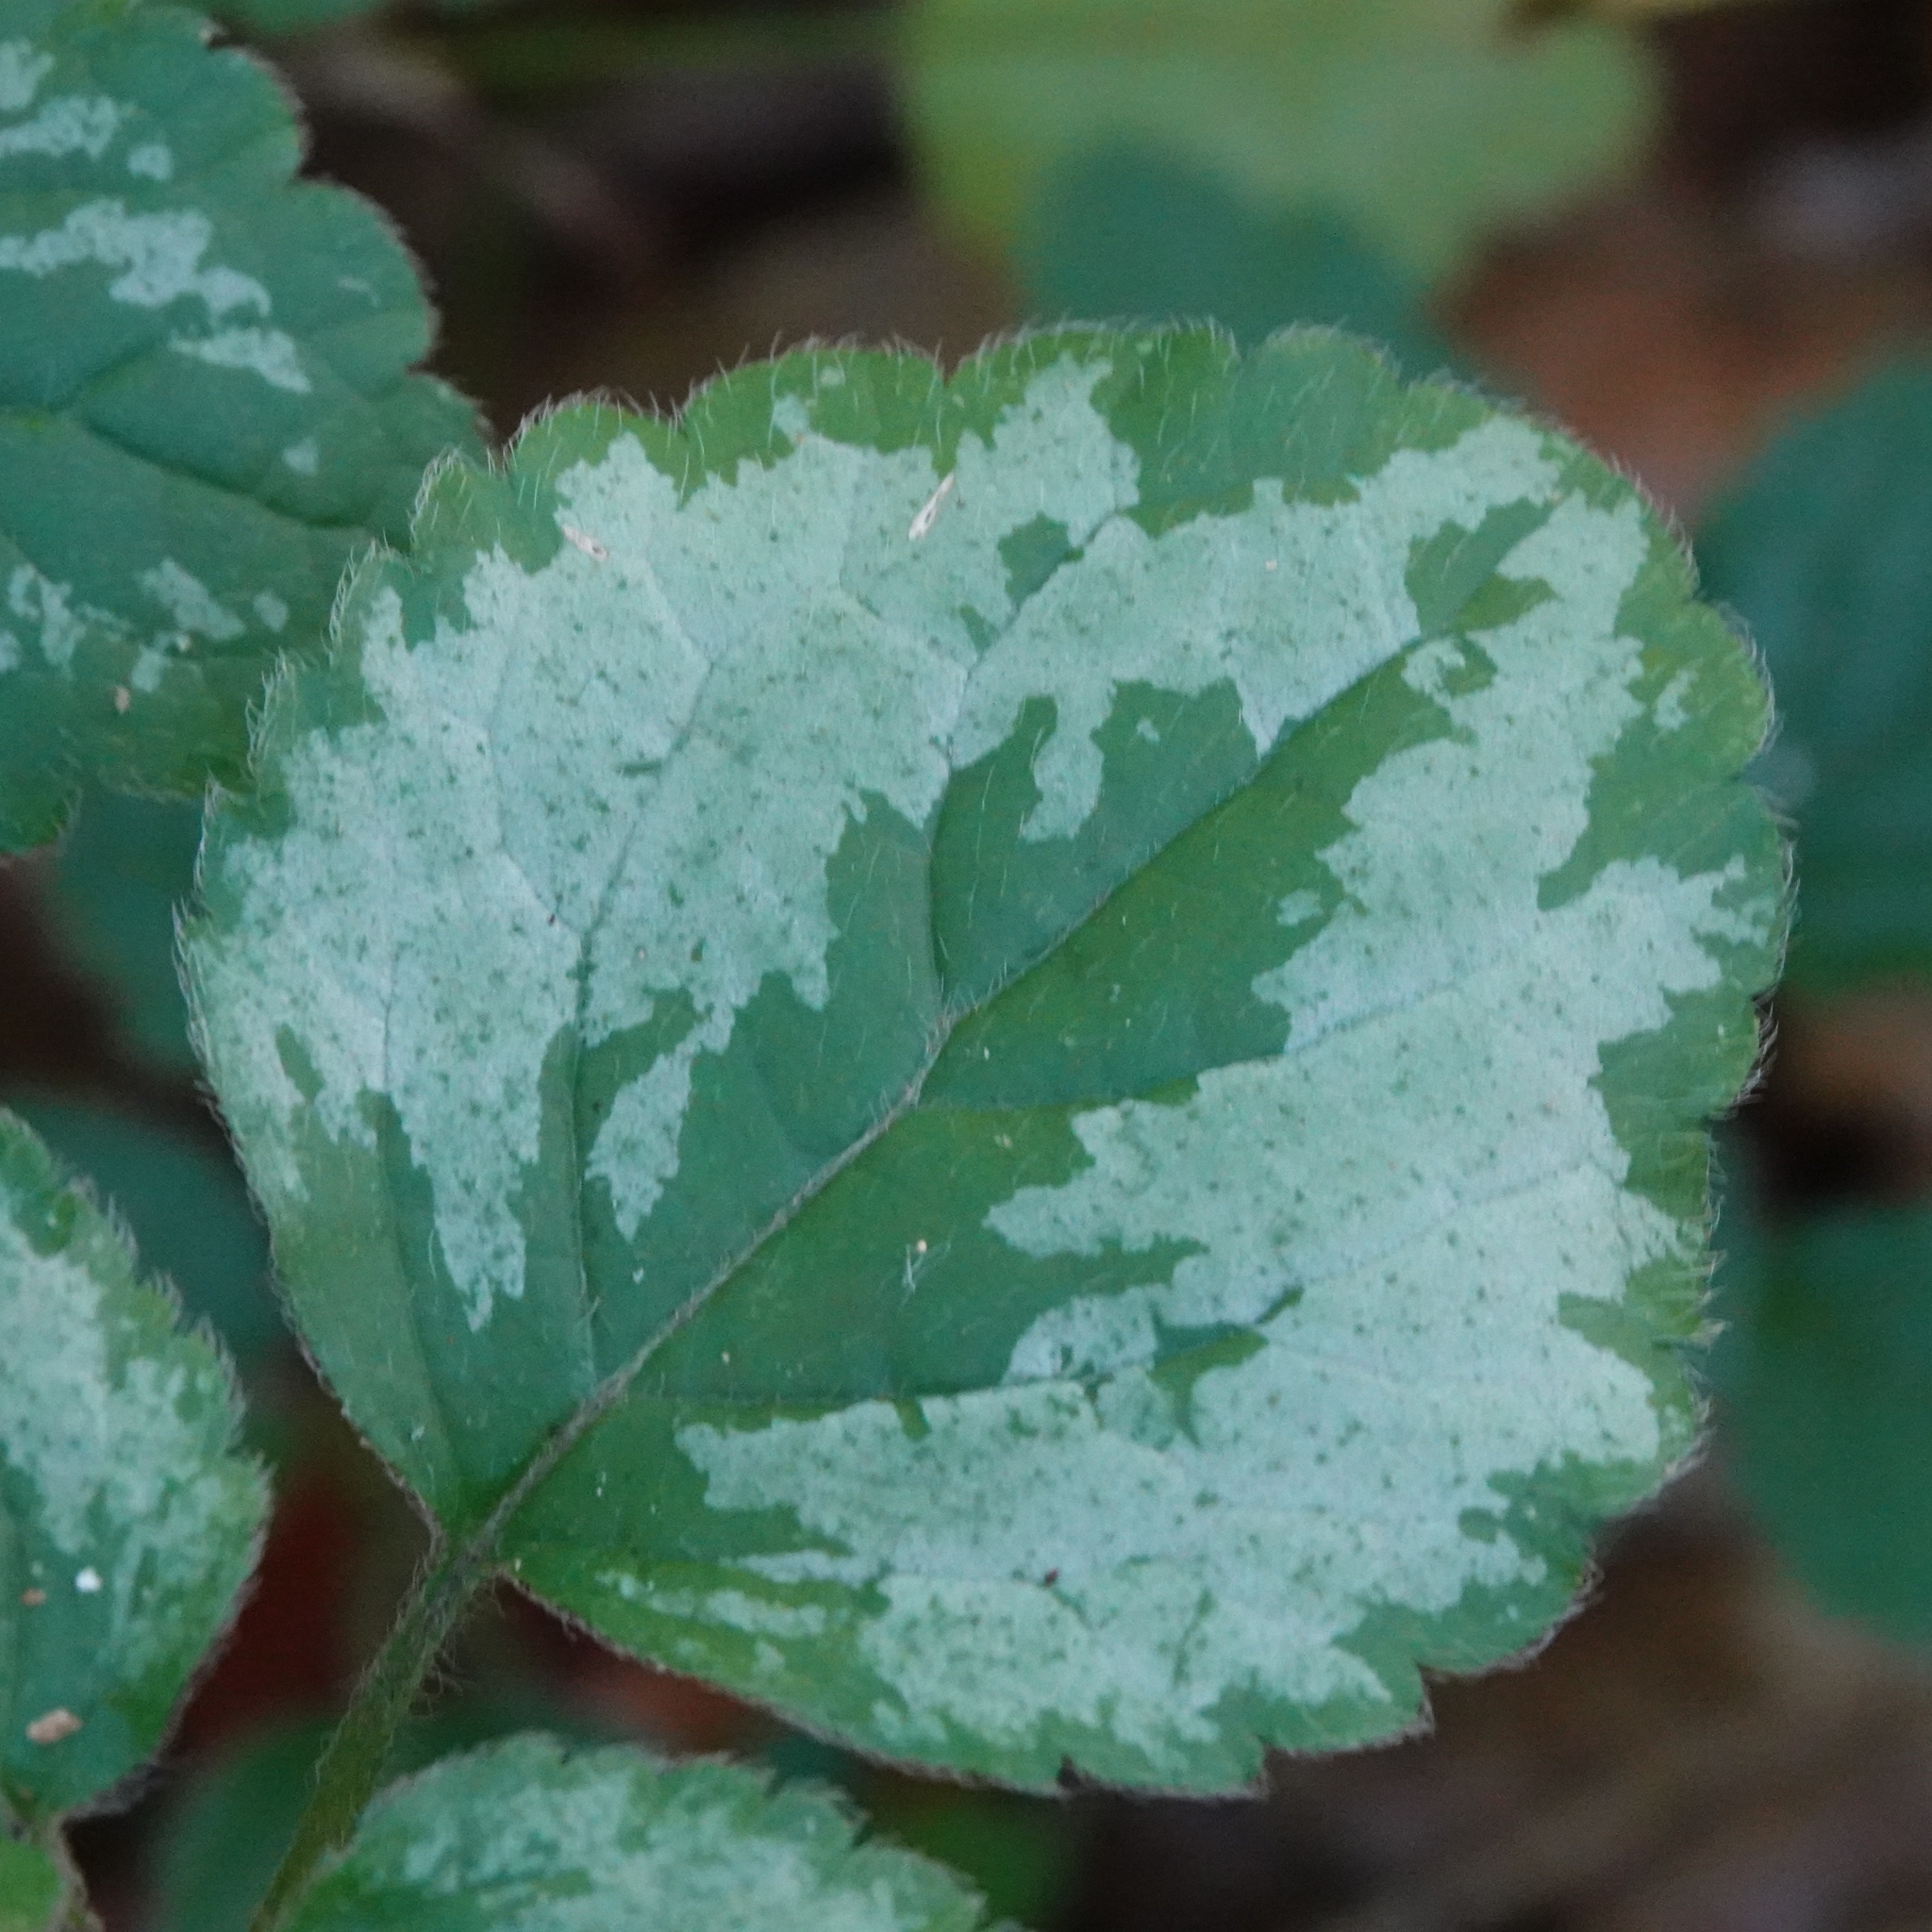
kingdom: Plantae
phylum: Tracheophyta
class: Magnoliopsida
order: Lamiales
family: Lamiaceae
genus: Lamium
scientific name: Lamium galeobdolon
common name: Yellow archangel
